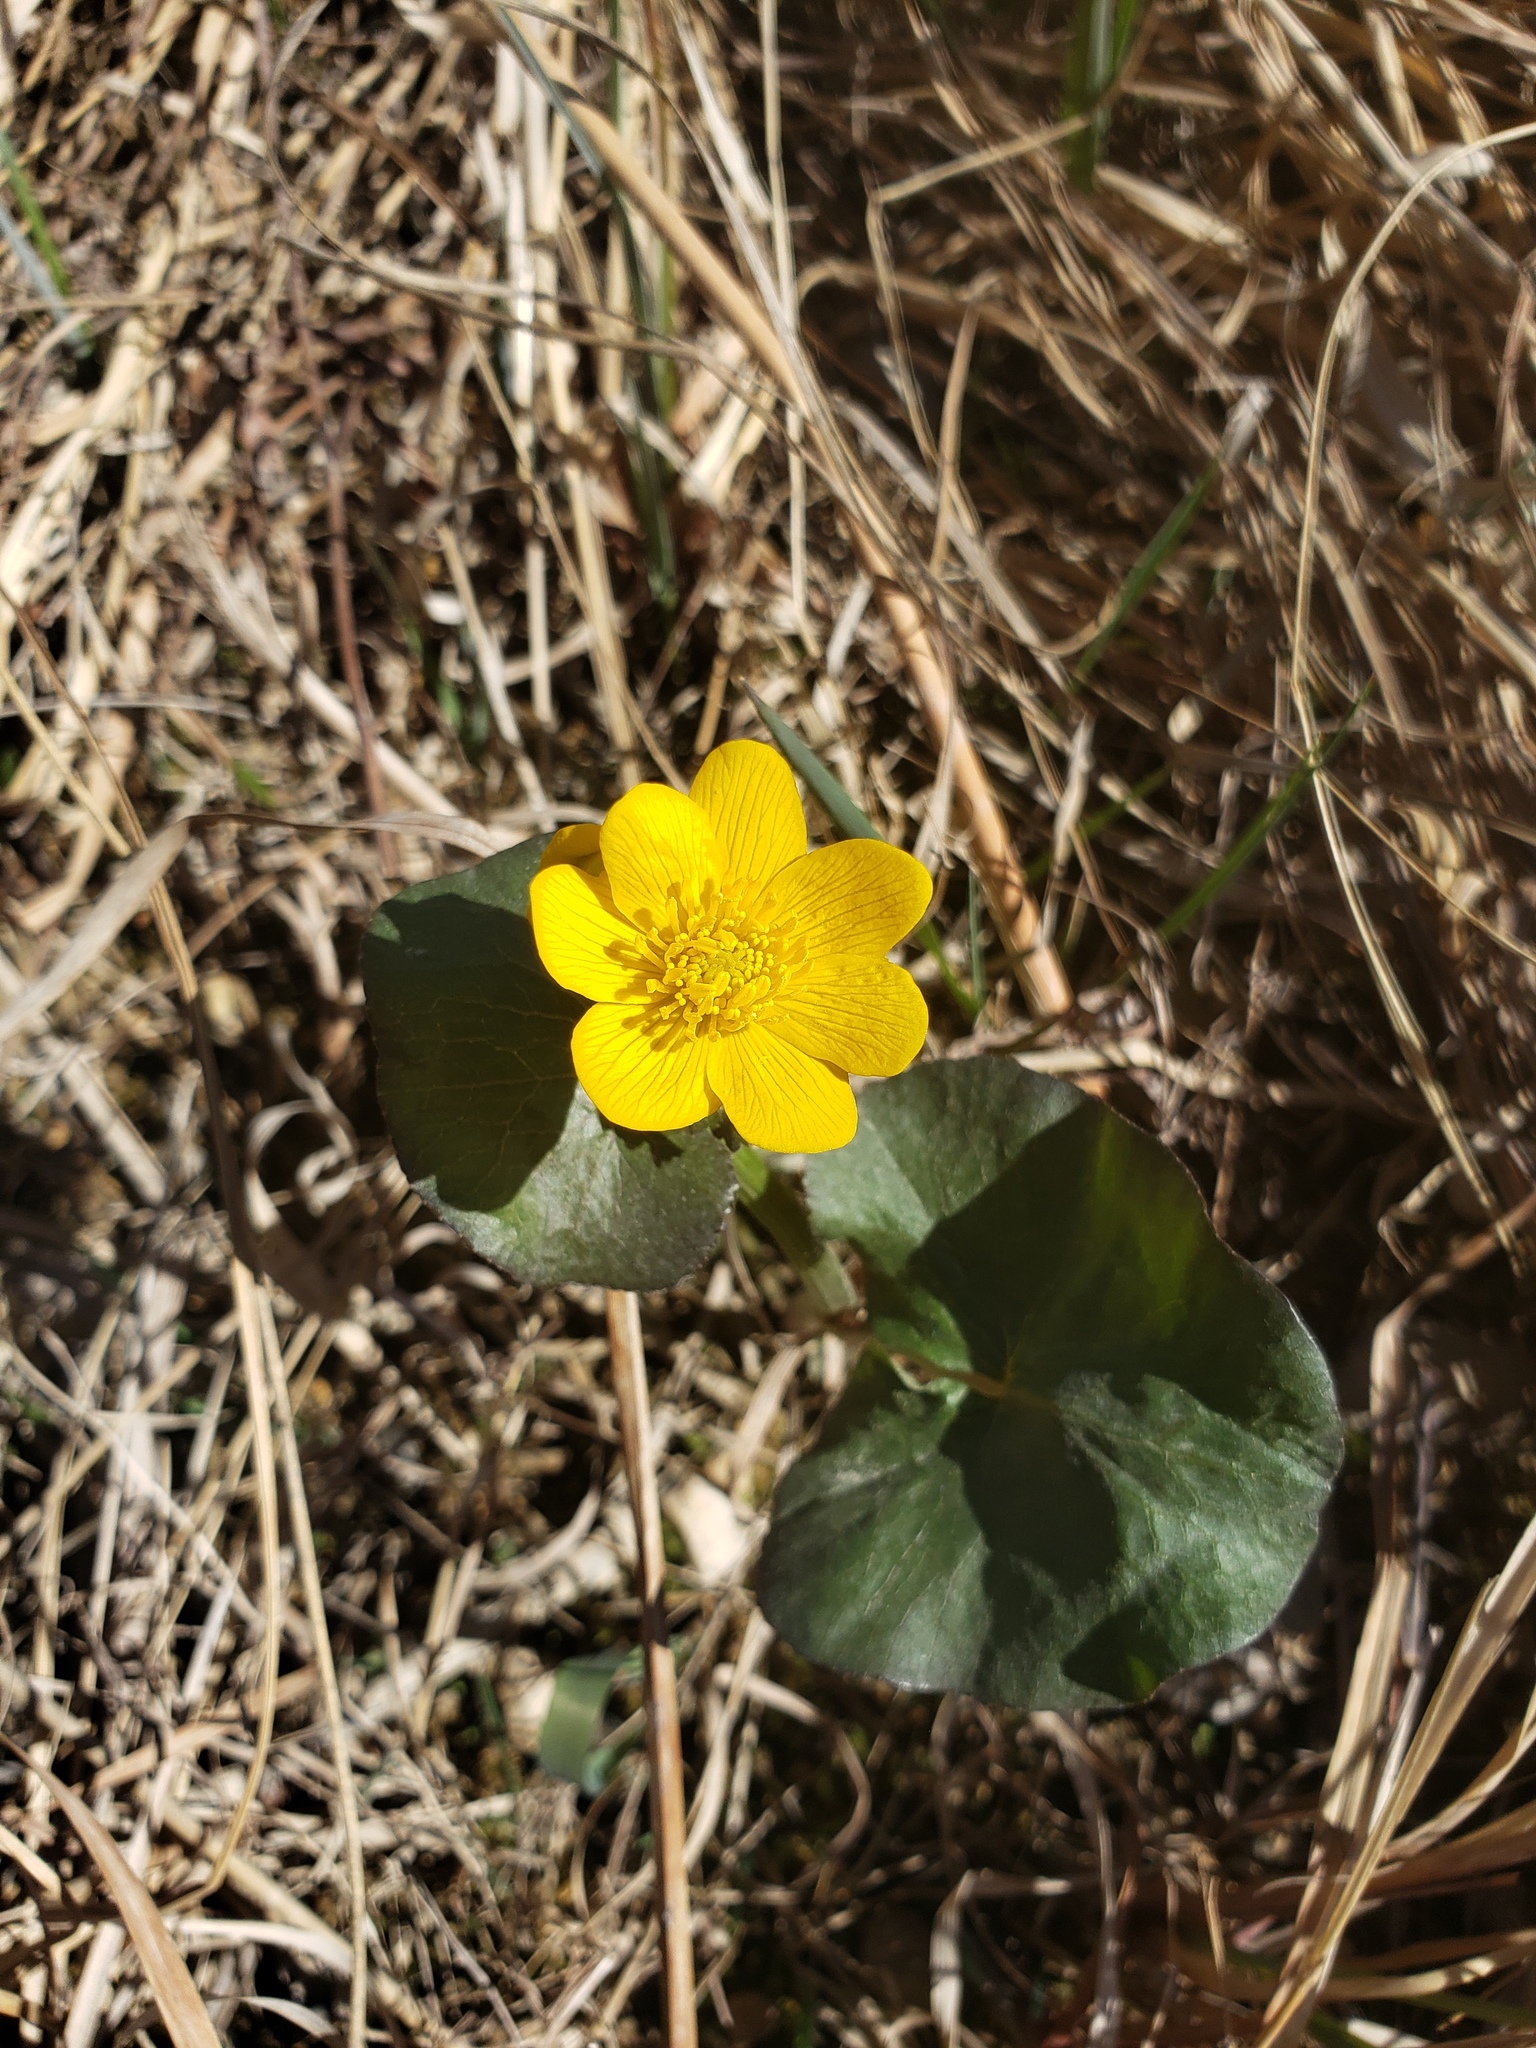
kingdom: Plantae
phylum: Tracheophyta
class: Magnoliopsida
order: Ranunculales
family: Ranunculaceae
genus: Caltha
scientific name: Caltha palustris
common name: Marsh marigold
